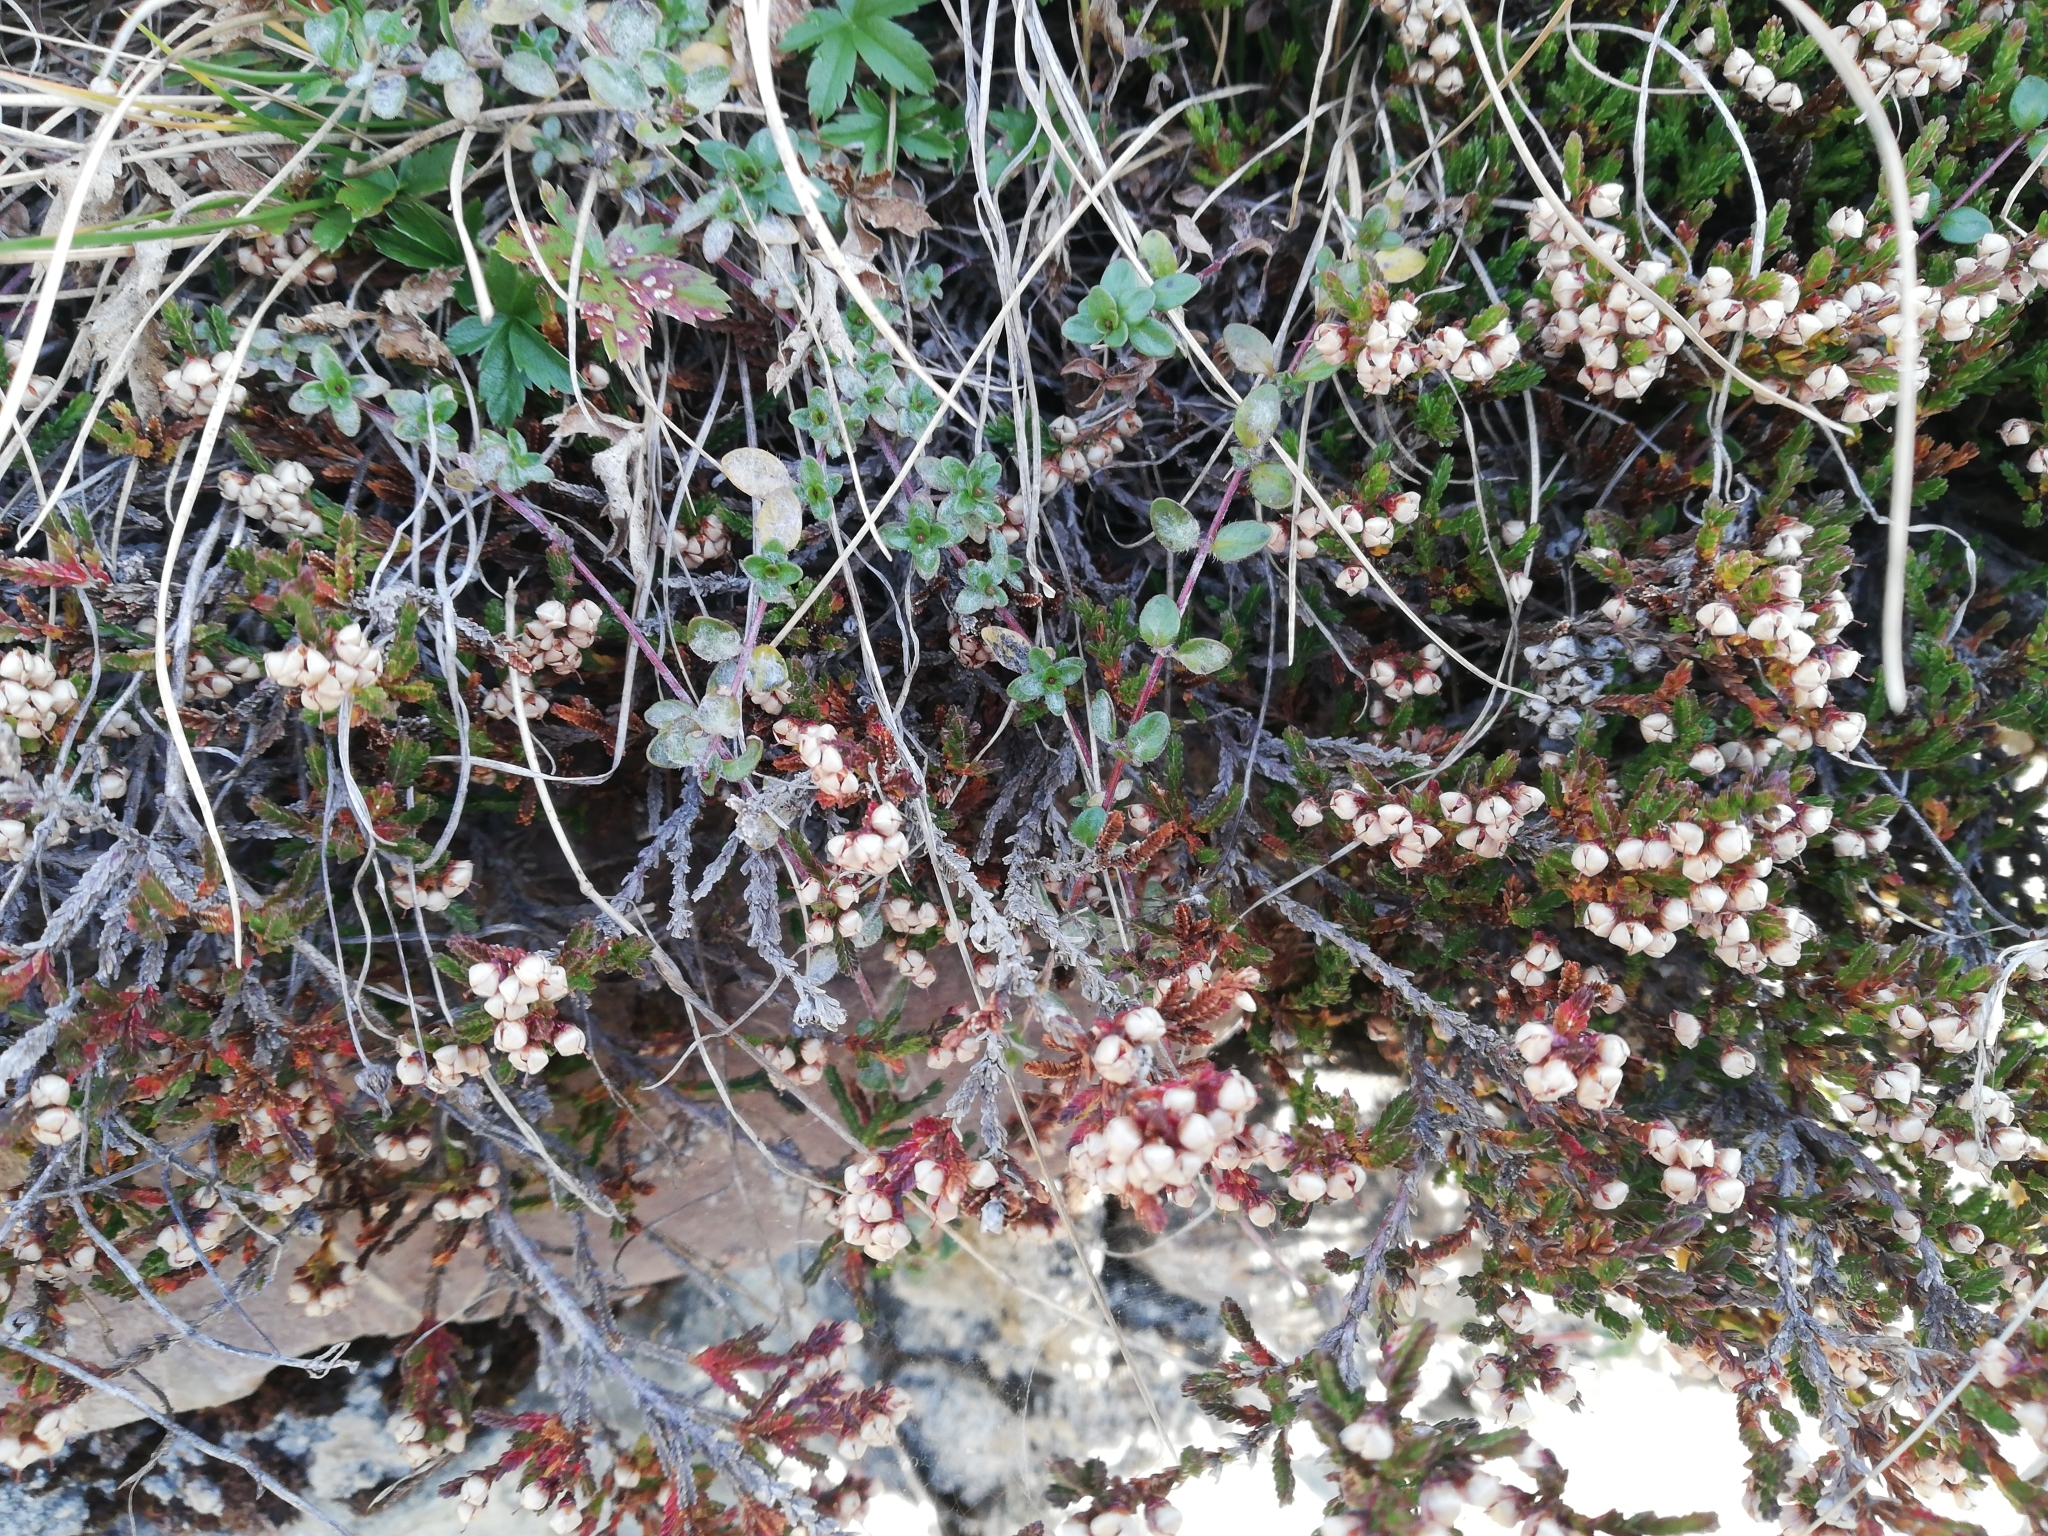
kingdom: Plantae
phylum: Tracheophyta
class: Magnoliopsida
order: Ericales
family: Ericaceae
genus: Calluna
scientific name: Calluna vulgaris
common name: Heather
